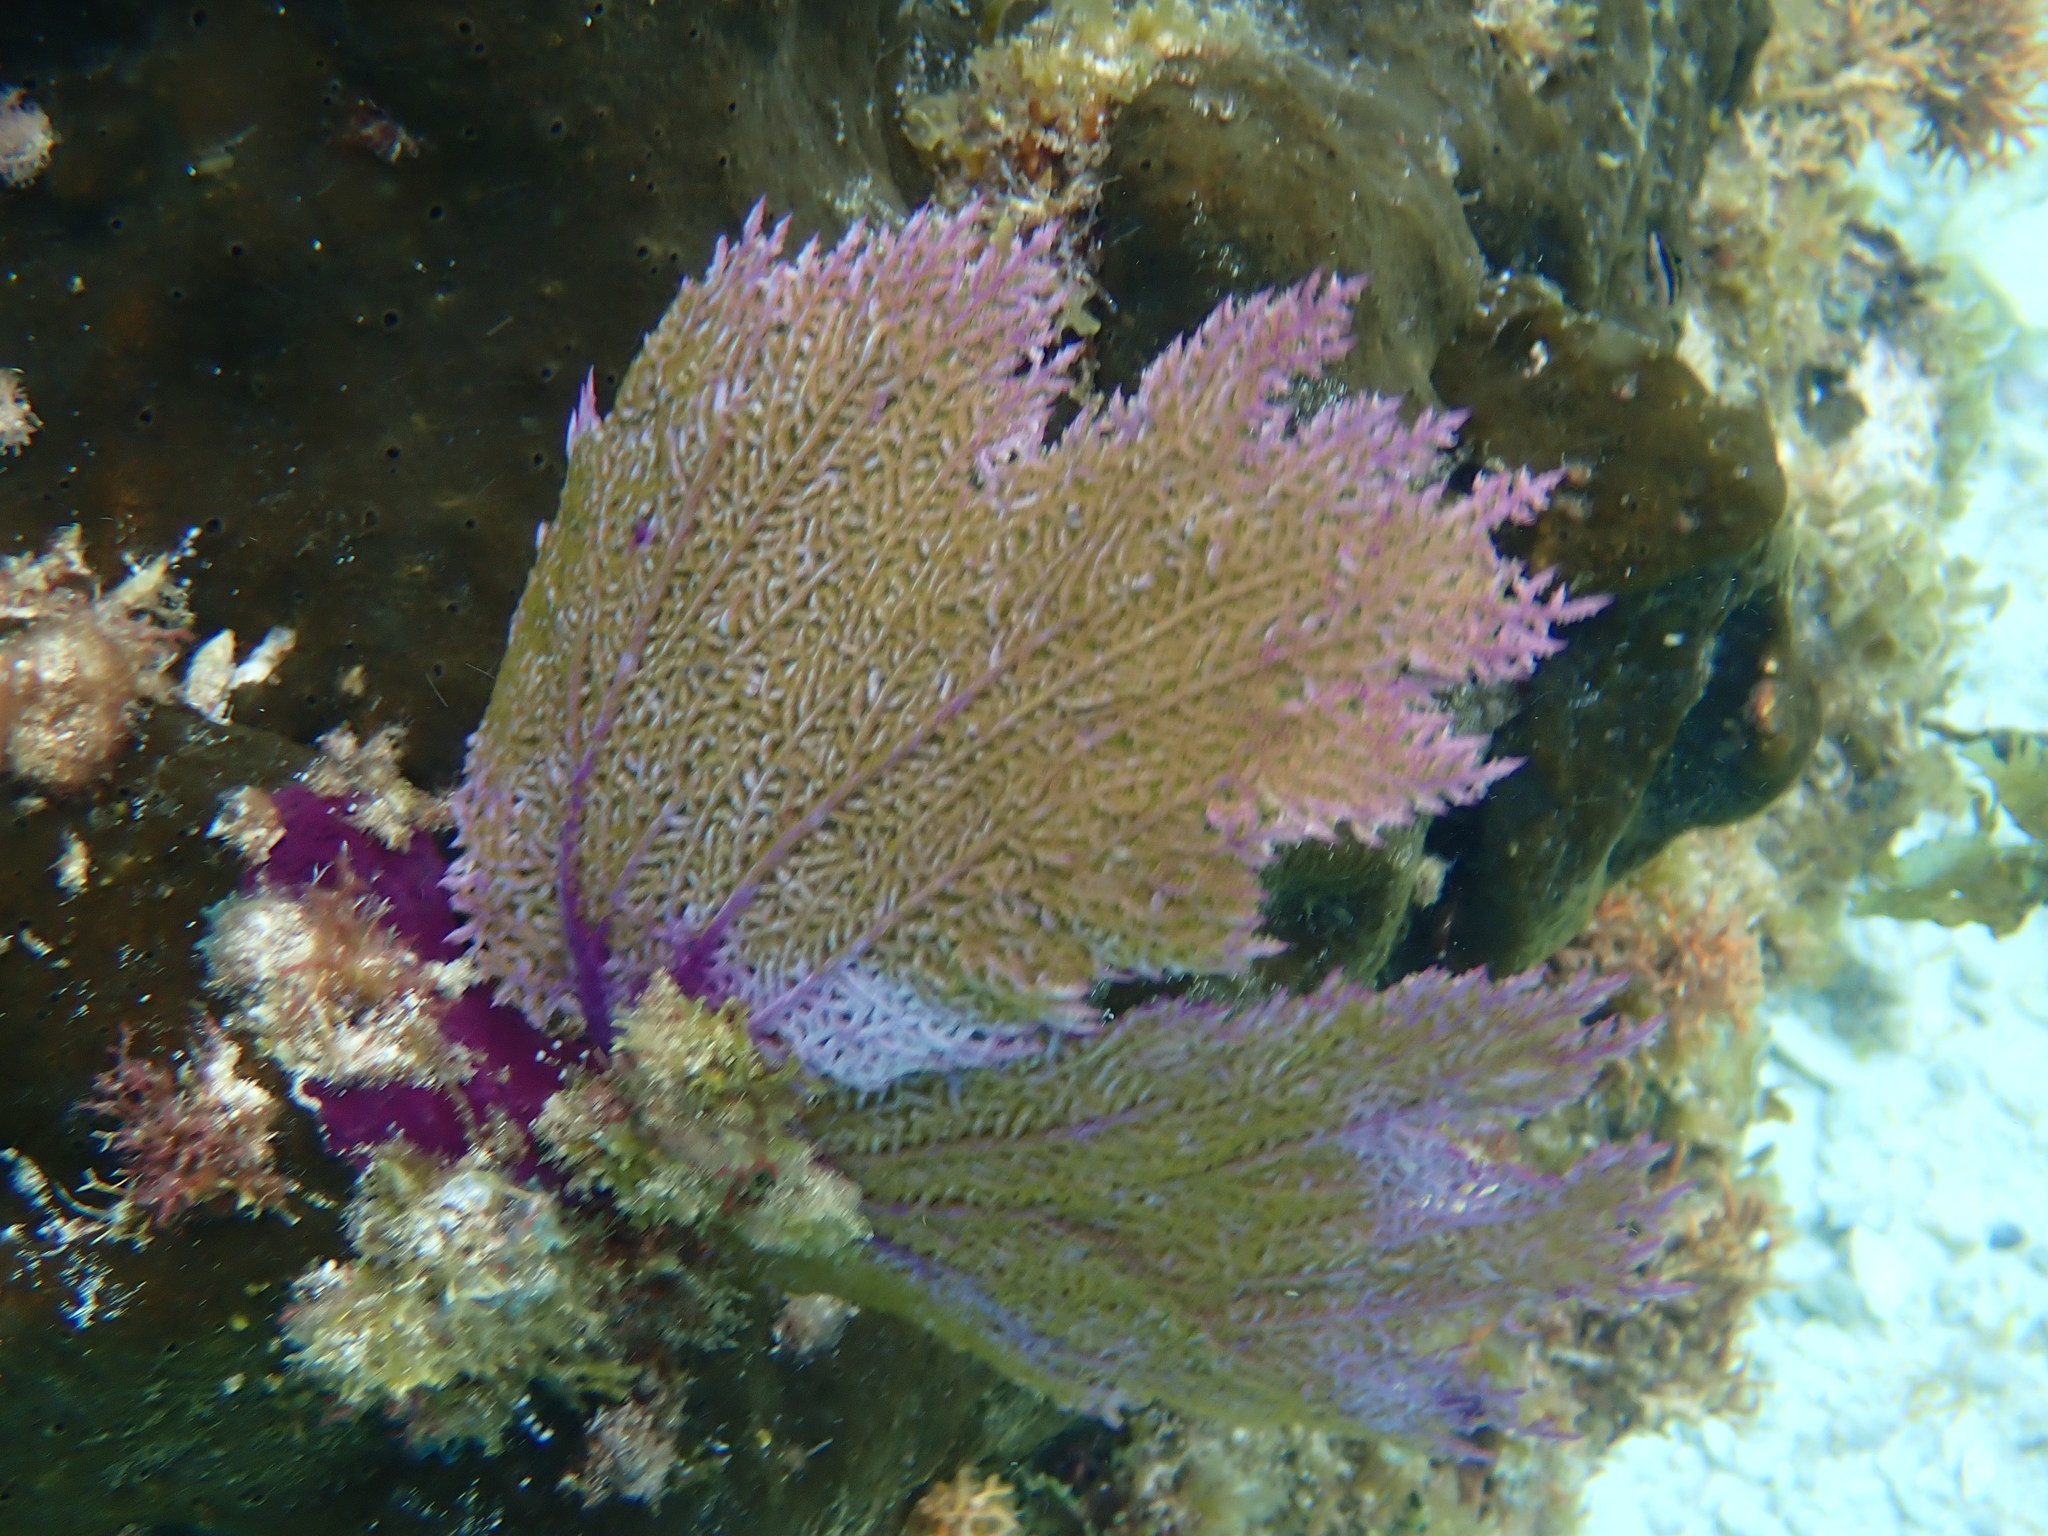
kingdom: Animalia
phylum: Cnidaria
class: Anthozoa
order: Malacalcyonacea
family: Gorgoniidae
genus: Gorgonia
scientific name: Gorgonia ventalina
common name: Common sea fan
